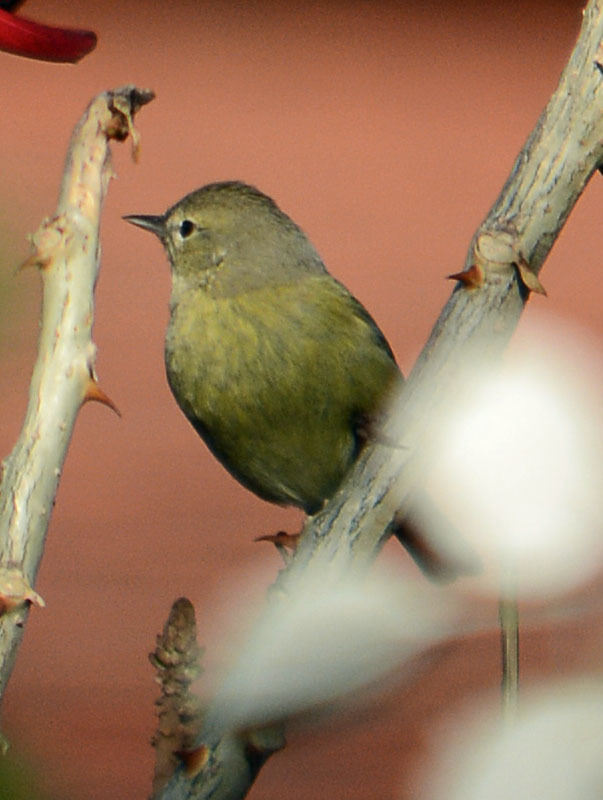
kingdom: Animalia
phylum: Chordata
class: Aves
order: Passeriformes
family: Parulidae
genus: Leiothlypis
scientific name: Leiothlypis celata
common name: Orange-crowned warbler
